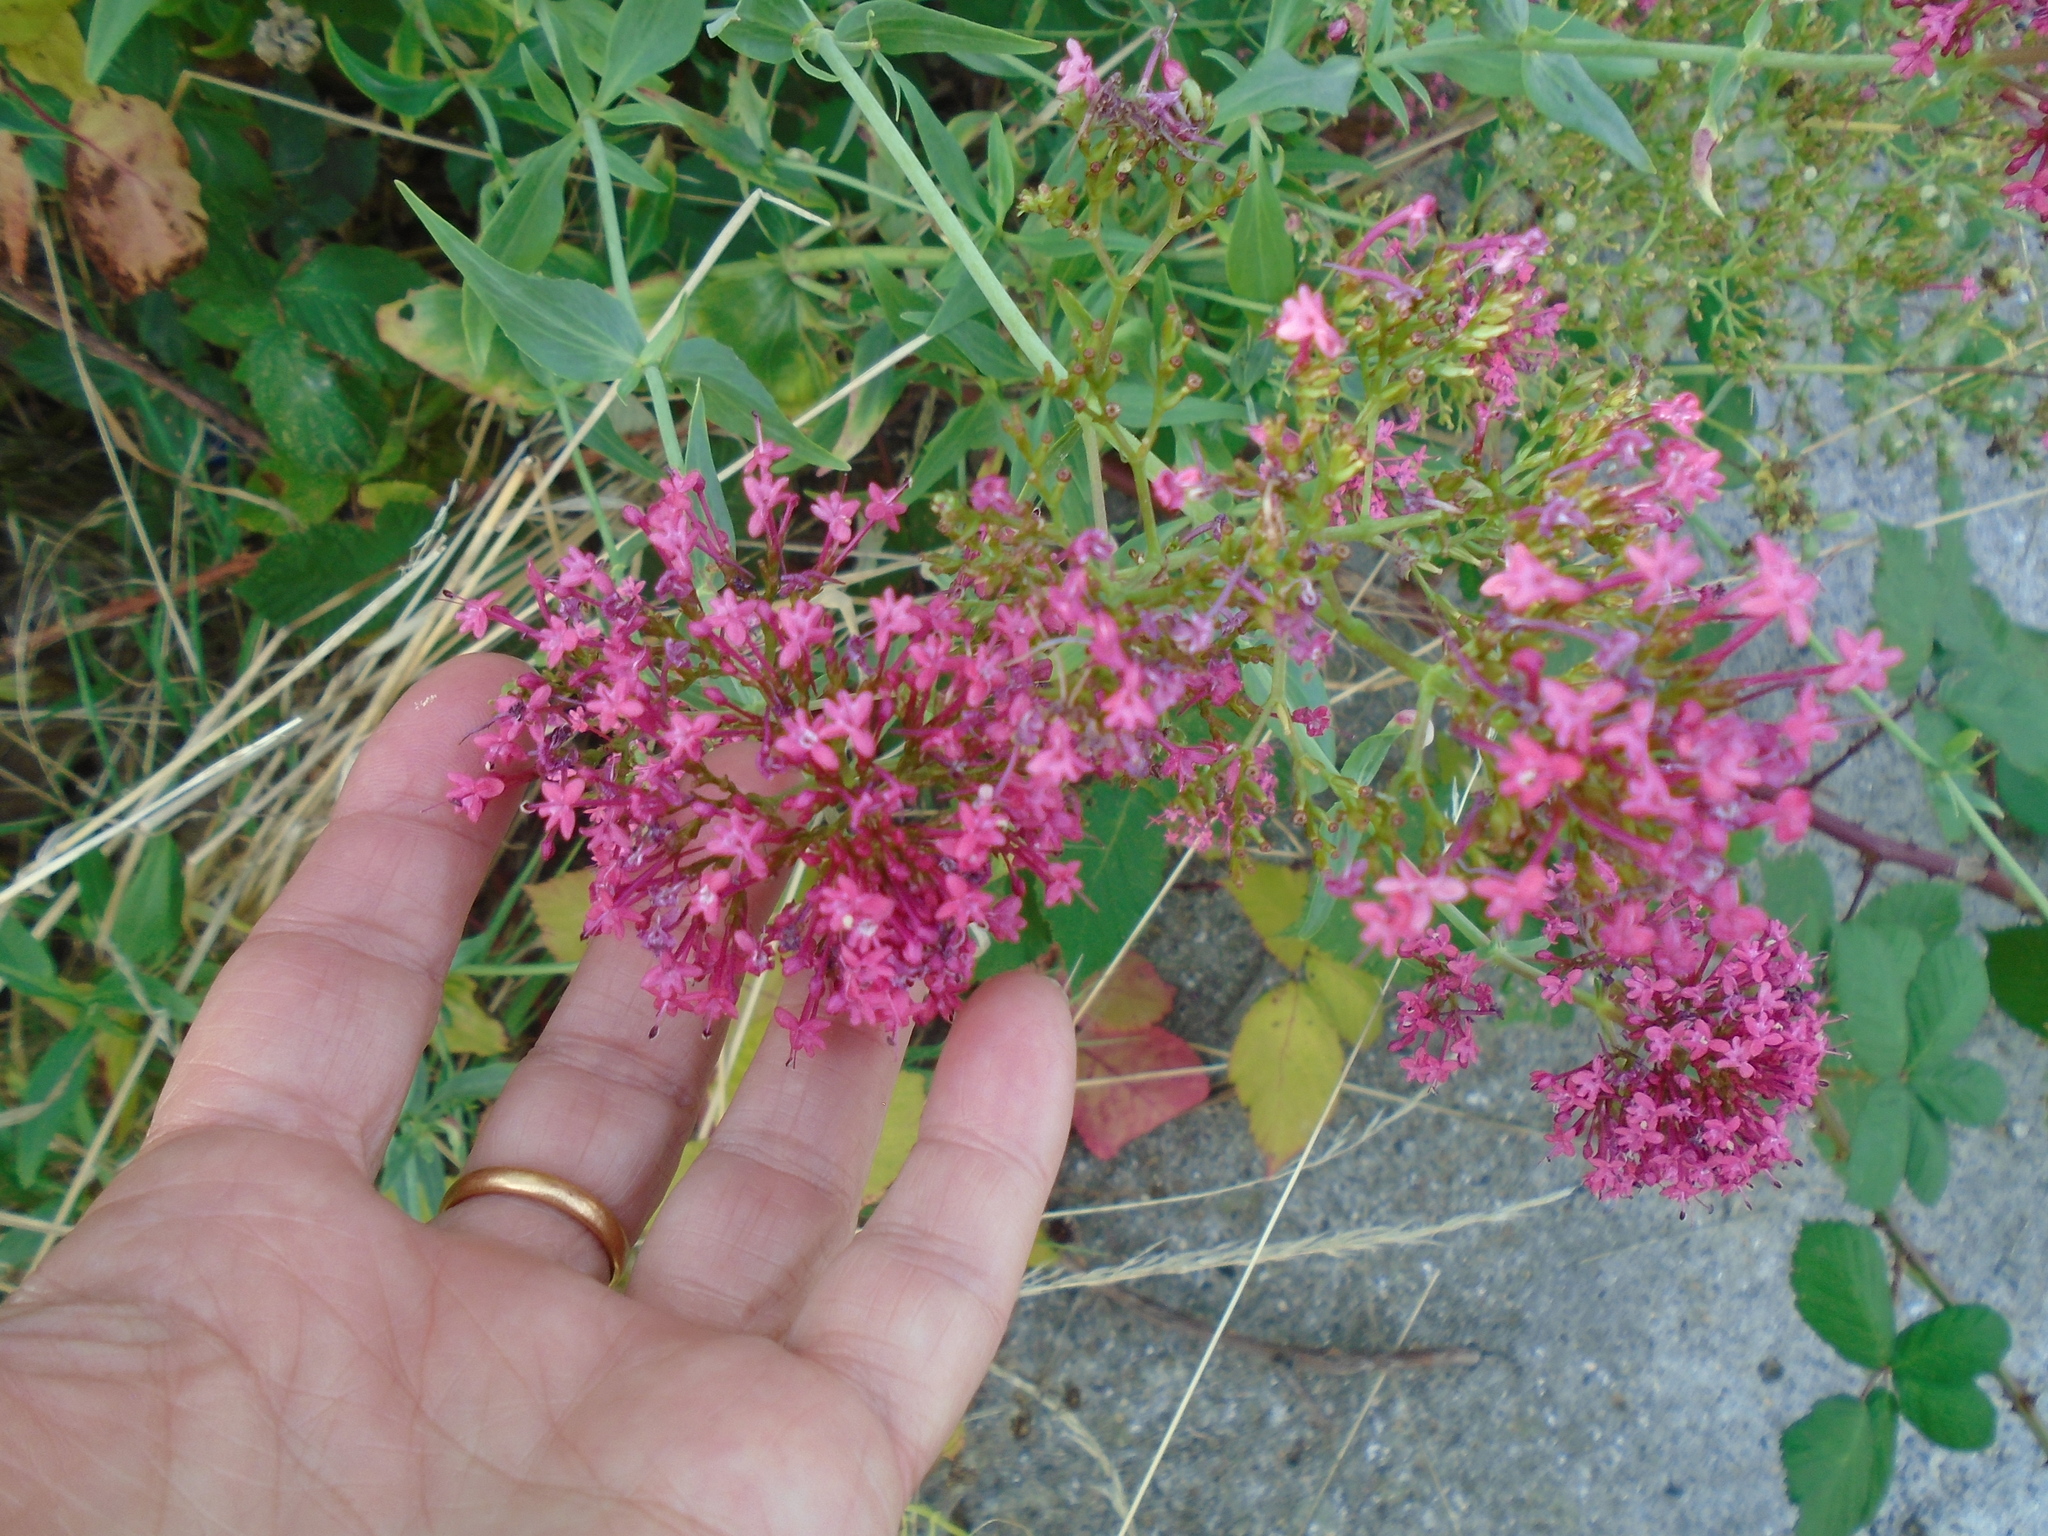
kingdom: Plantae
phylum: Tracheophyta
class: Magnoliopsida
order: Dipsacales
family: Caprifoliaceae
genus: Centranthus
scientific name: Centranthus ruber
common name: Red valerian
